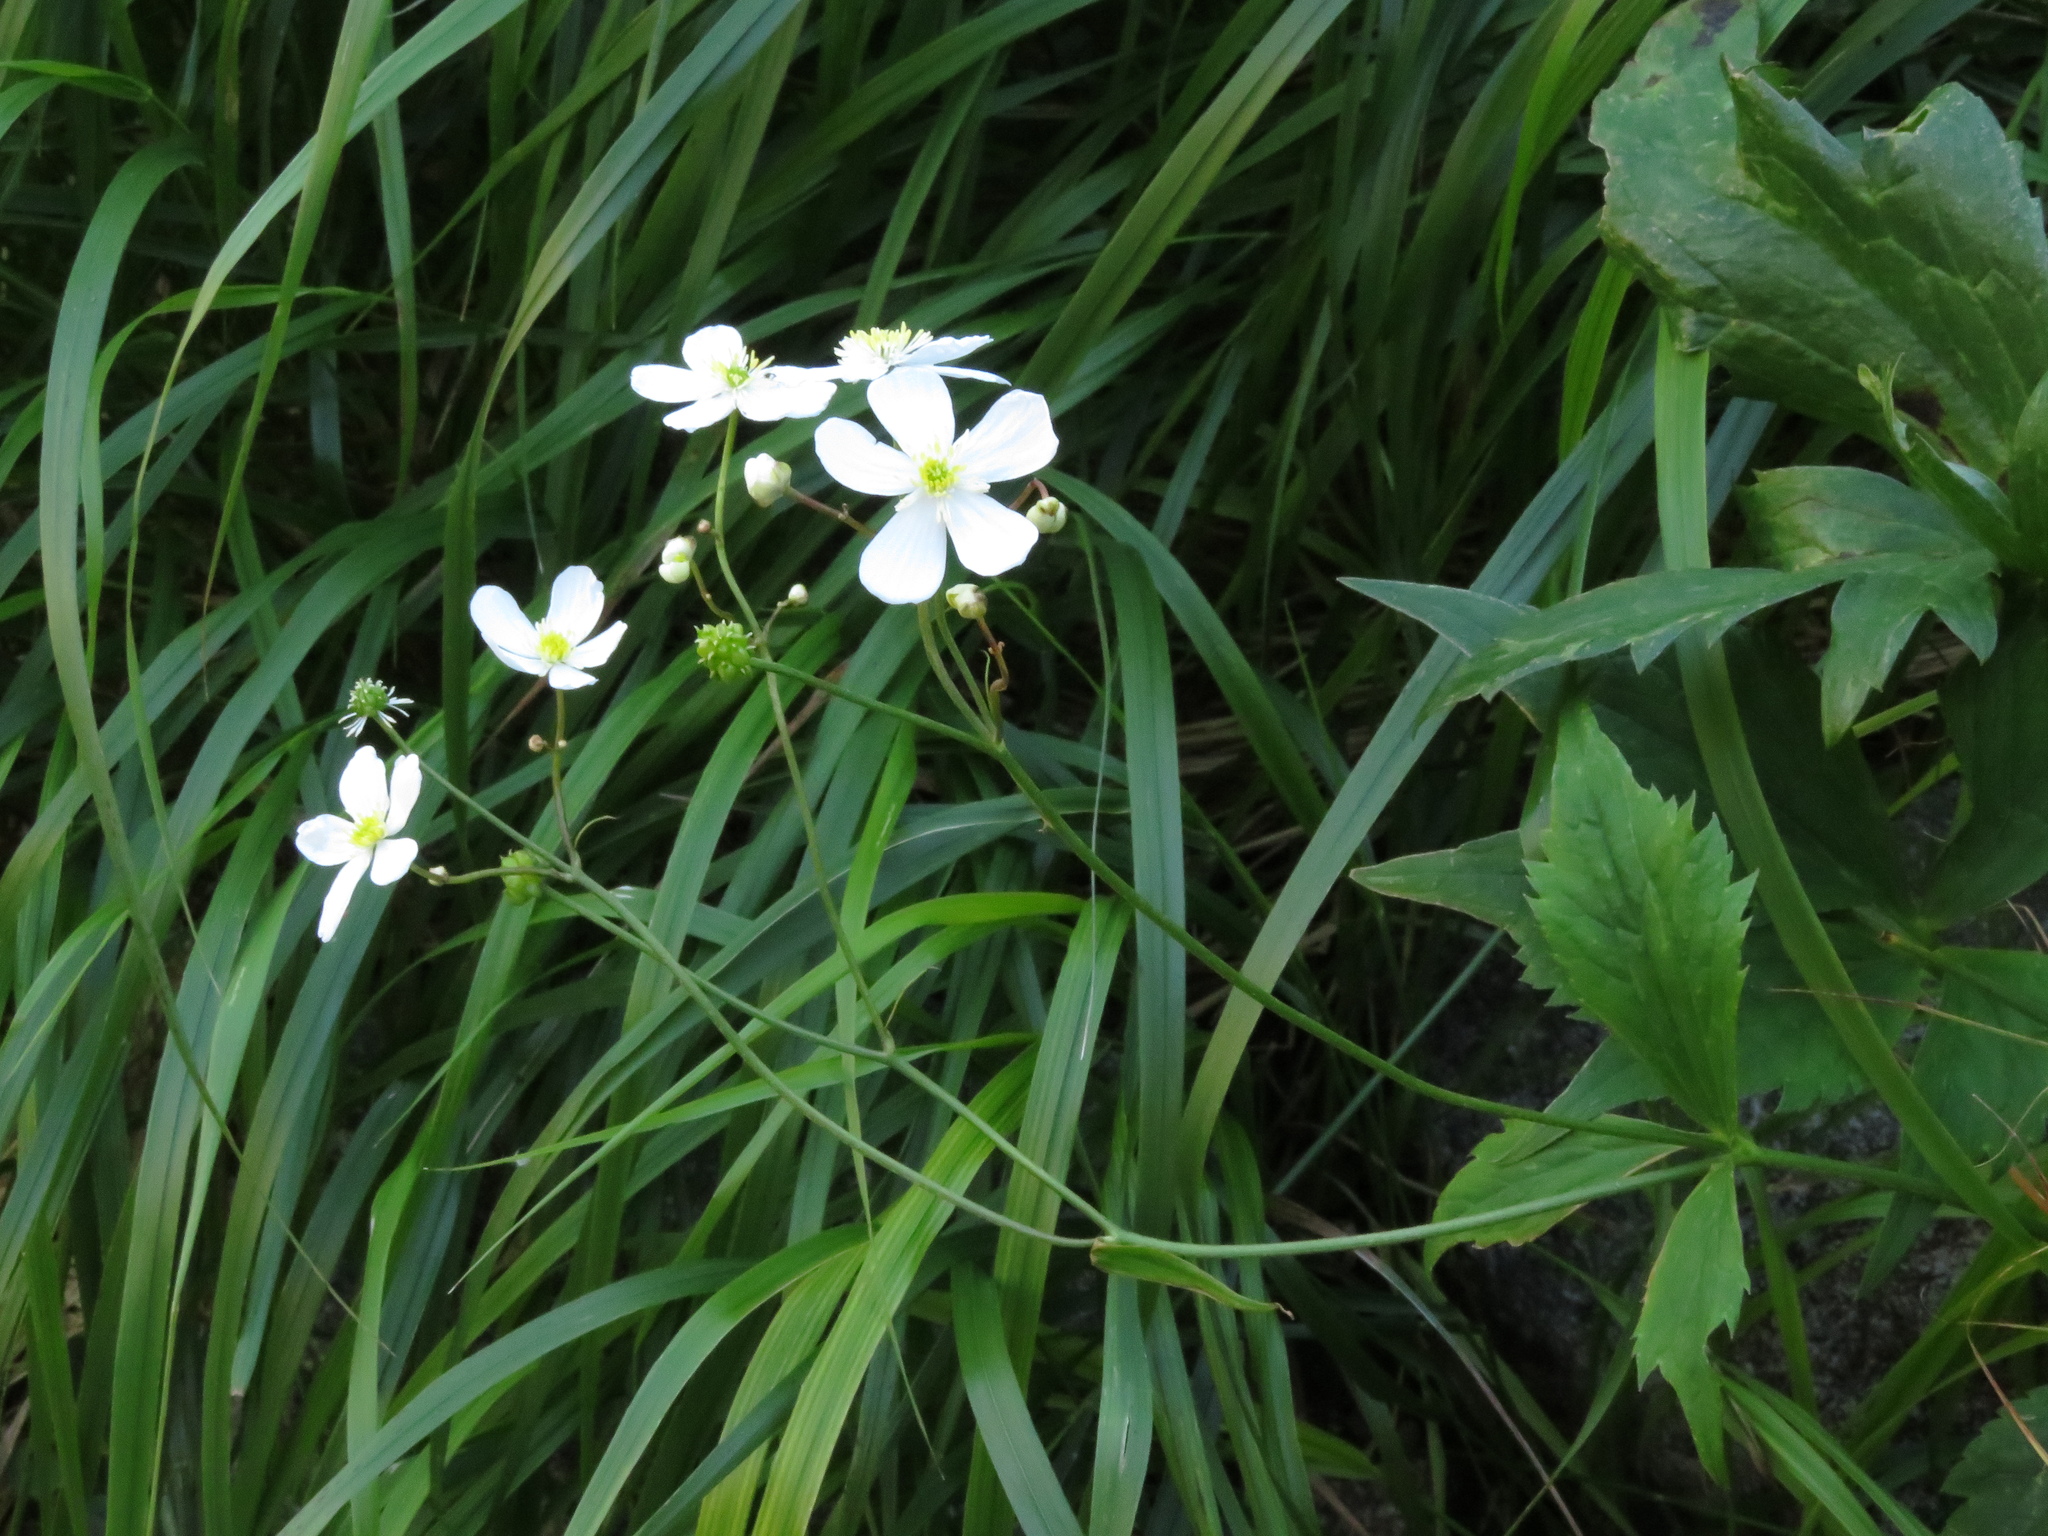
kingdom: Plantae
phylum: Tracheophyta
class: Magnoliopsida
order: Ranunculales
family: Ranunculaceae
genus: Ranunculus
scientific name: Ranunculus platanifolius
